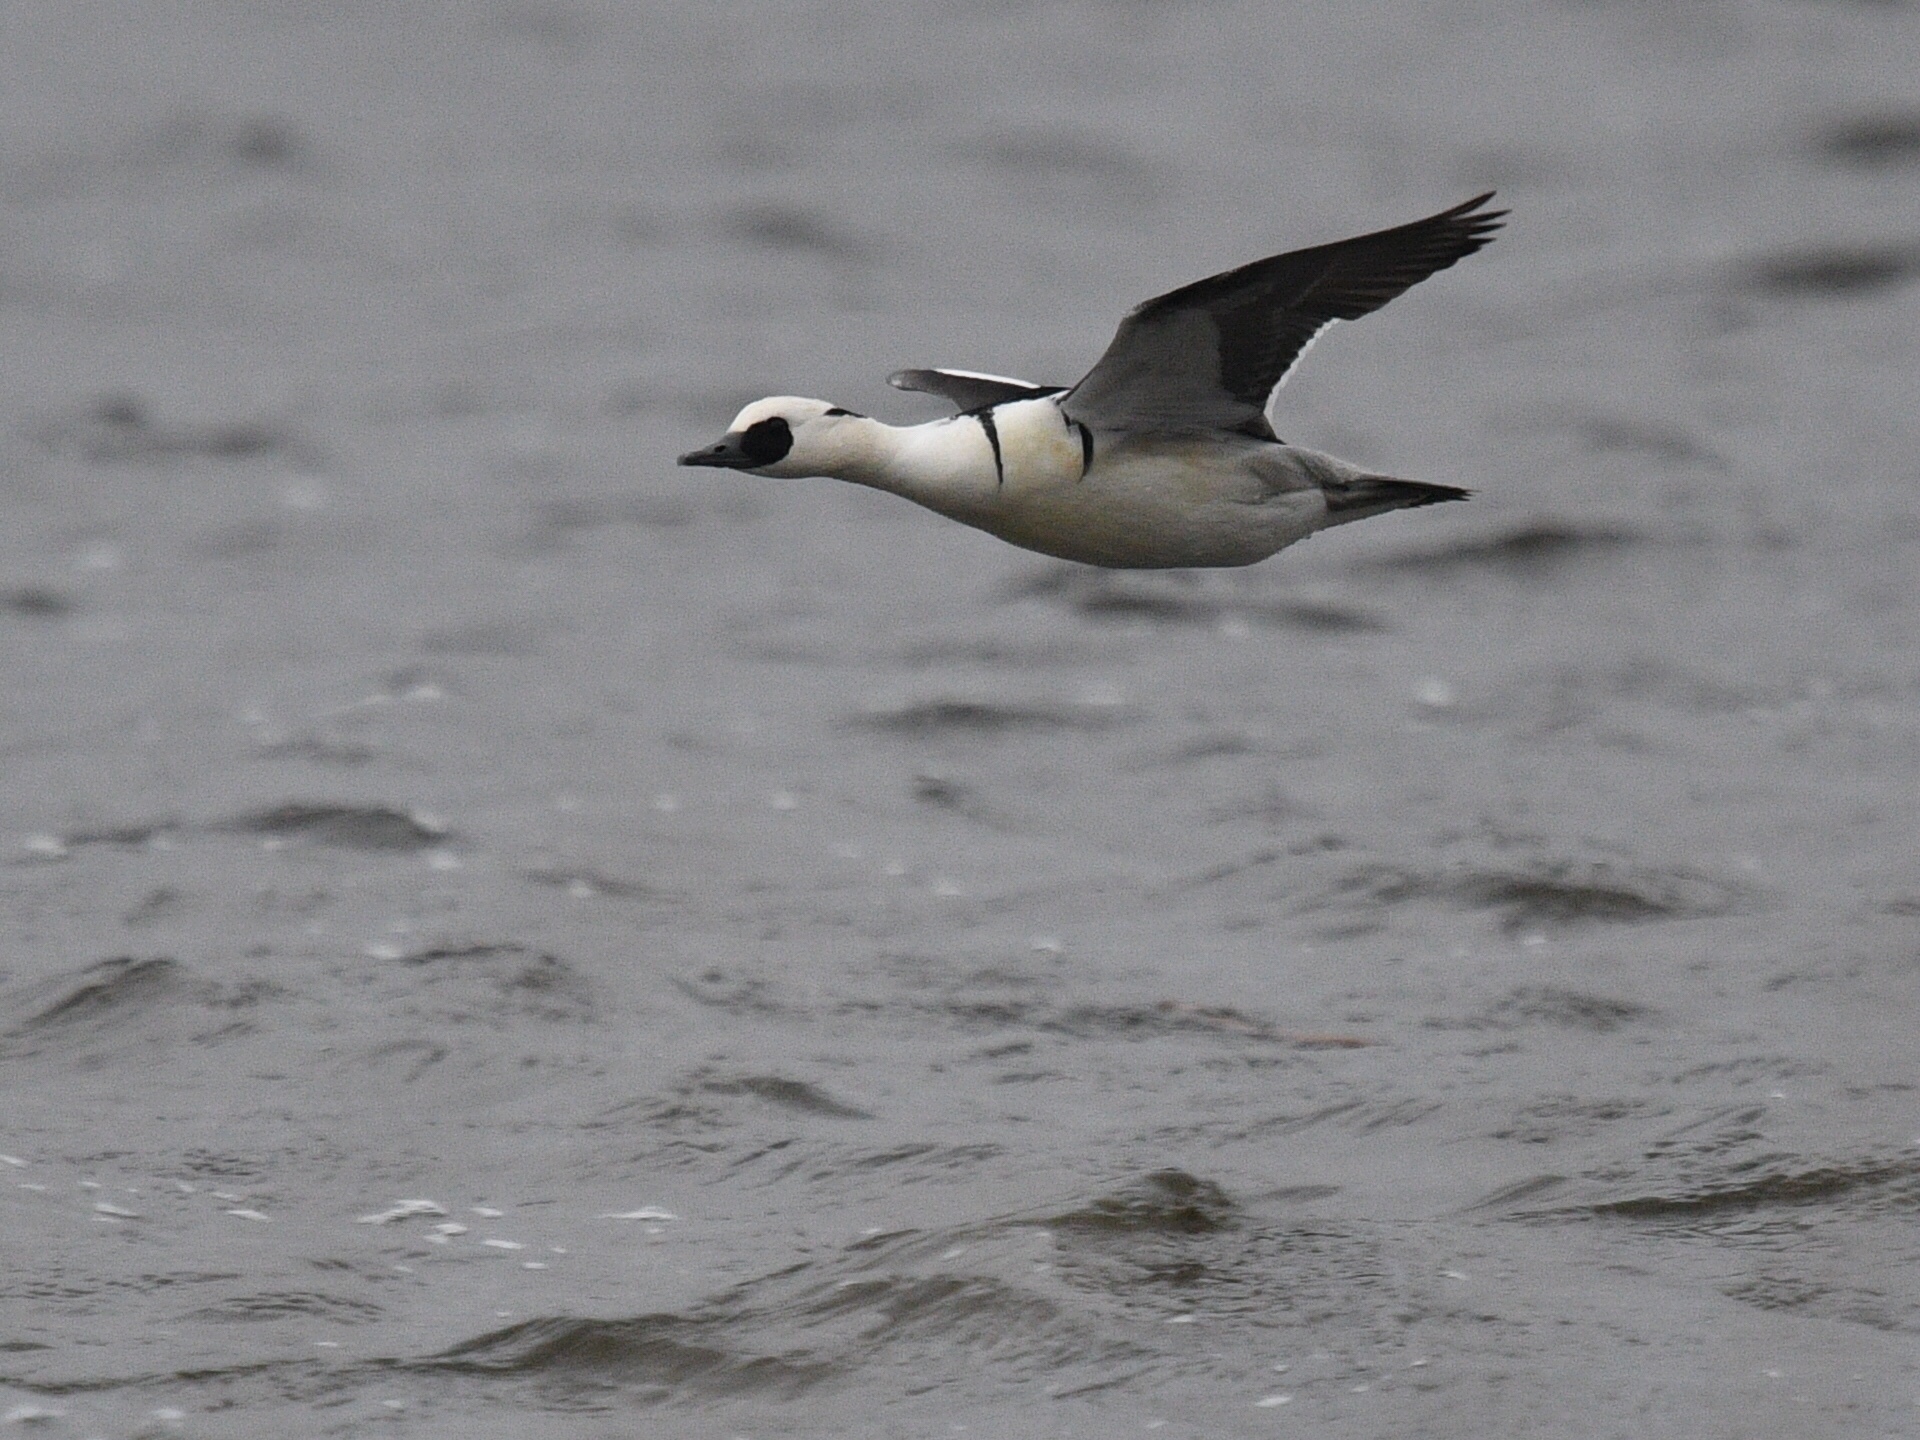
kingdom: Animalia
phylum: Chordata
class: Aves
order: Anseriformes
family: Anatidae
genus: Mergellus
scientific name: Mergellus albellus
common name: Smew
